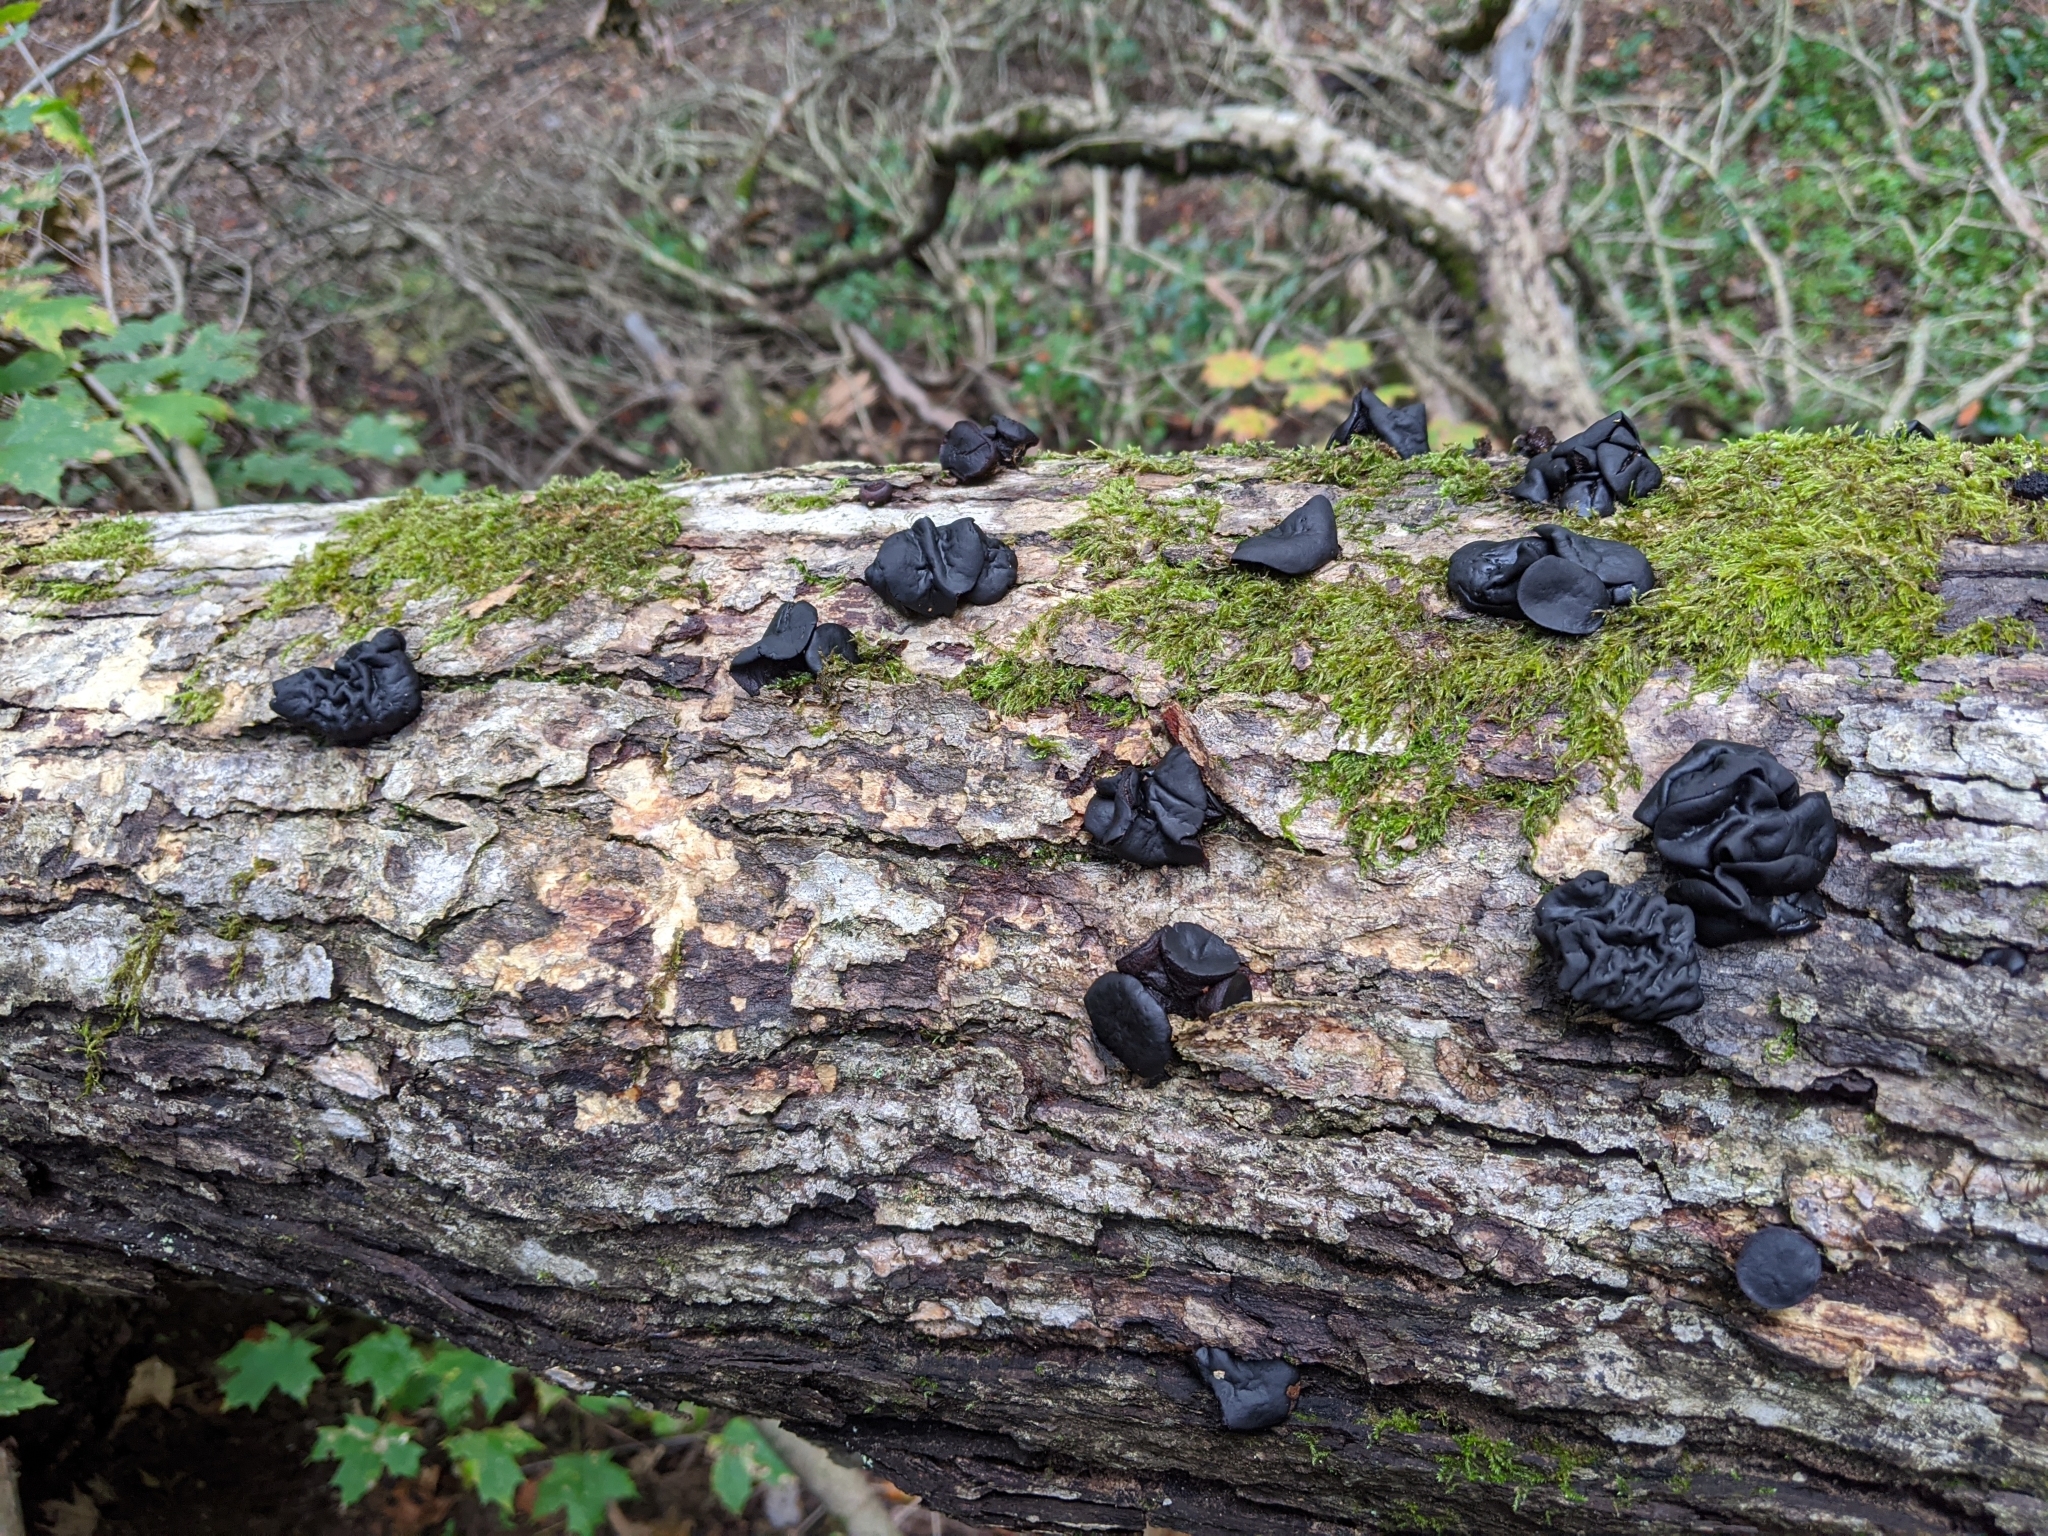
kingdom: Fungi
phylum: Ascomycota
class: Leotiomycetes
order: Phacidiales
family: Phacidiaceae
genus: Bulgaria
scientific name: Bulgaria inquinans
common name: Black bulgar
